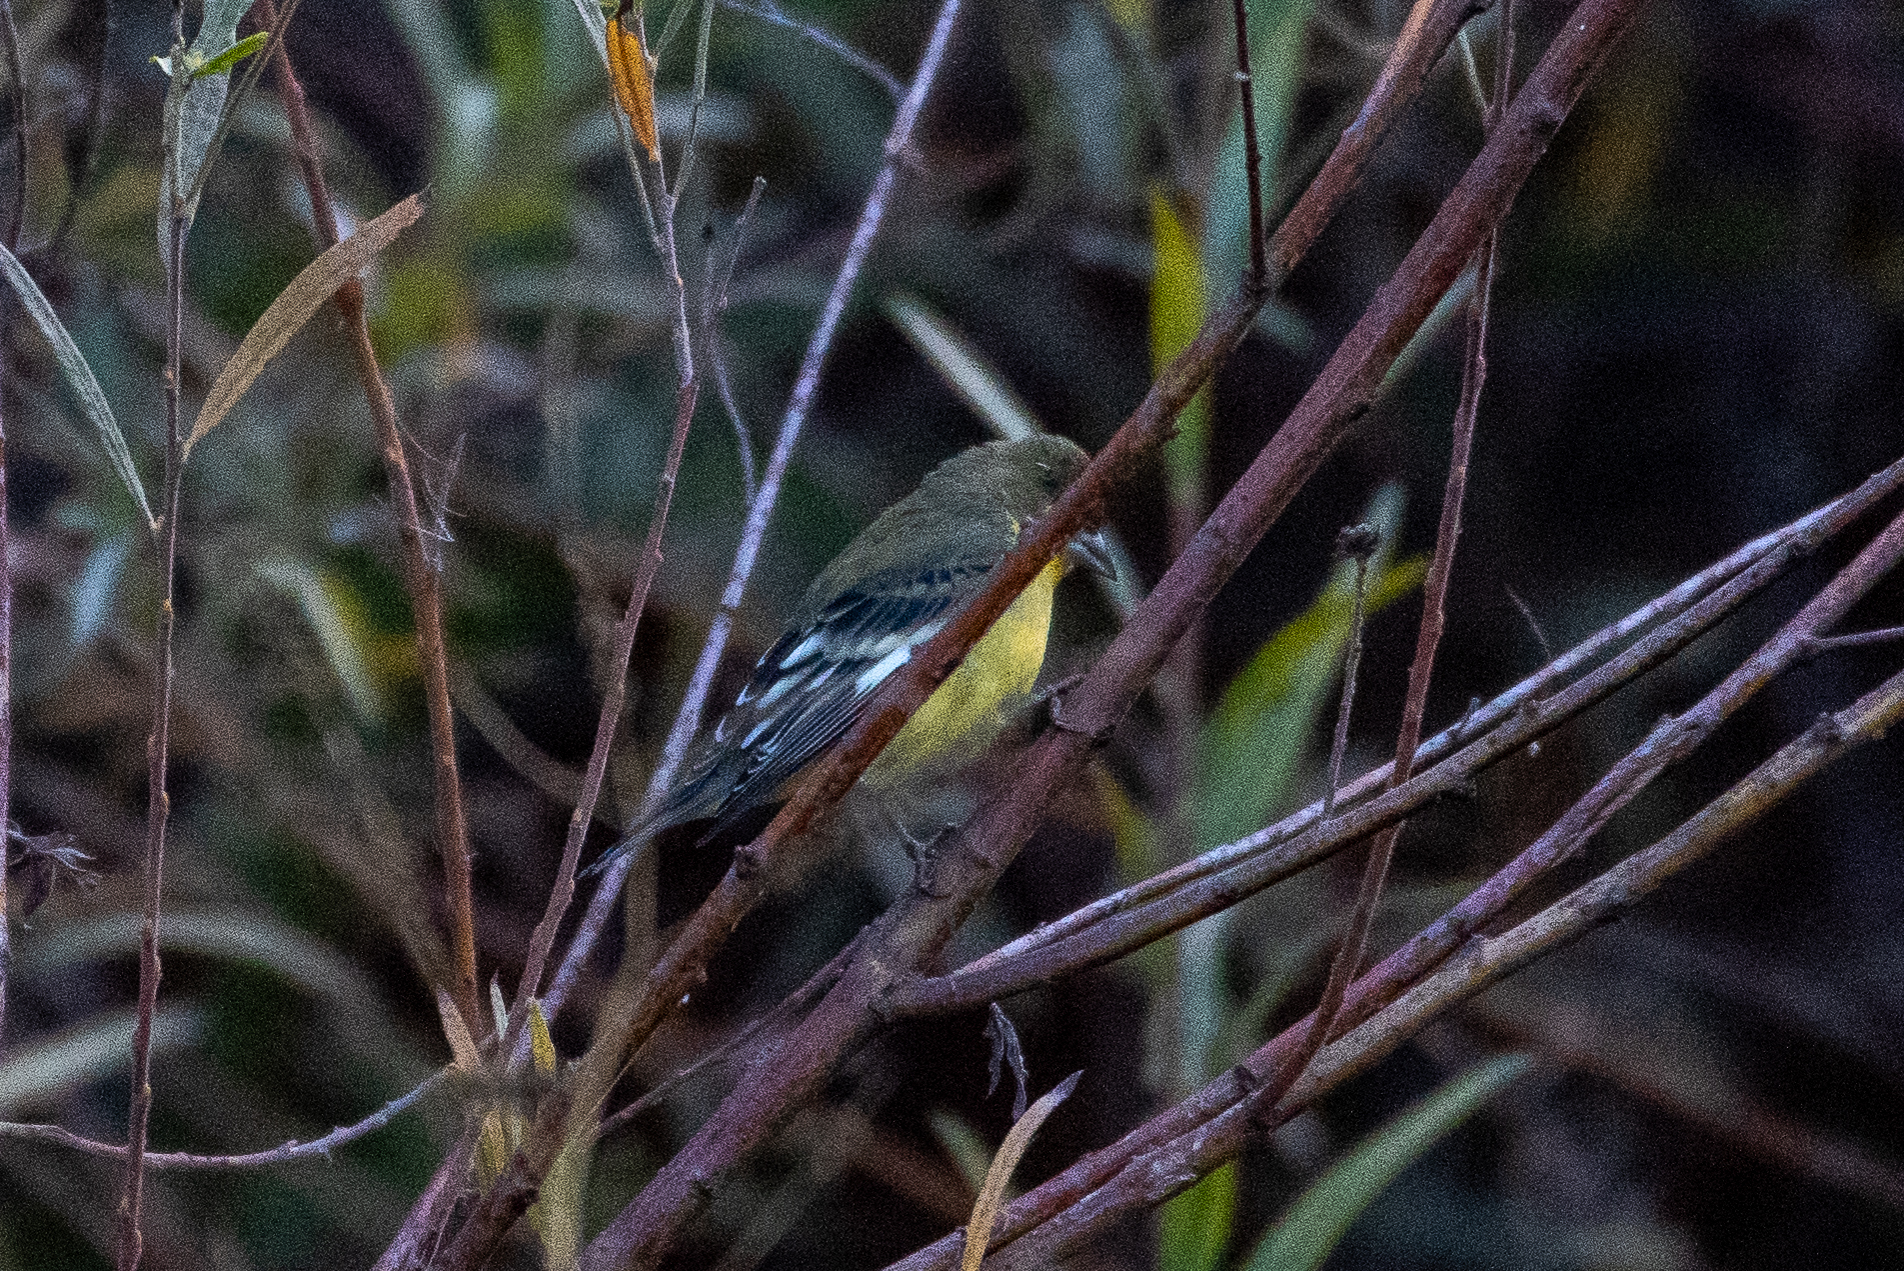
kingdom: Animalia
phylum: Chordata
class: Aves
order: Passeriformes
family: Fringillidae
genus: Spinus
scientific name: Spinus psaltria
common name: Lesser goldfinch
